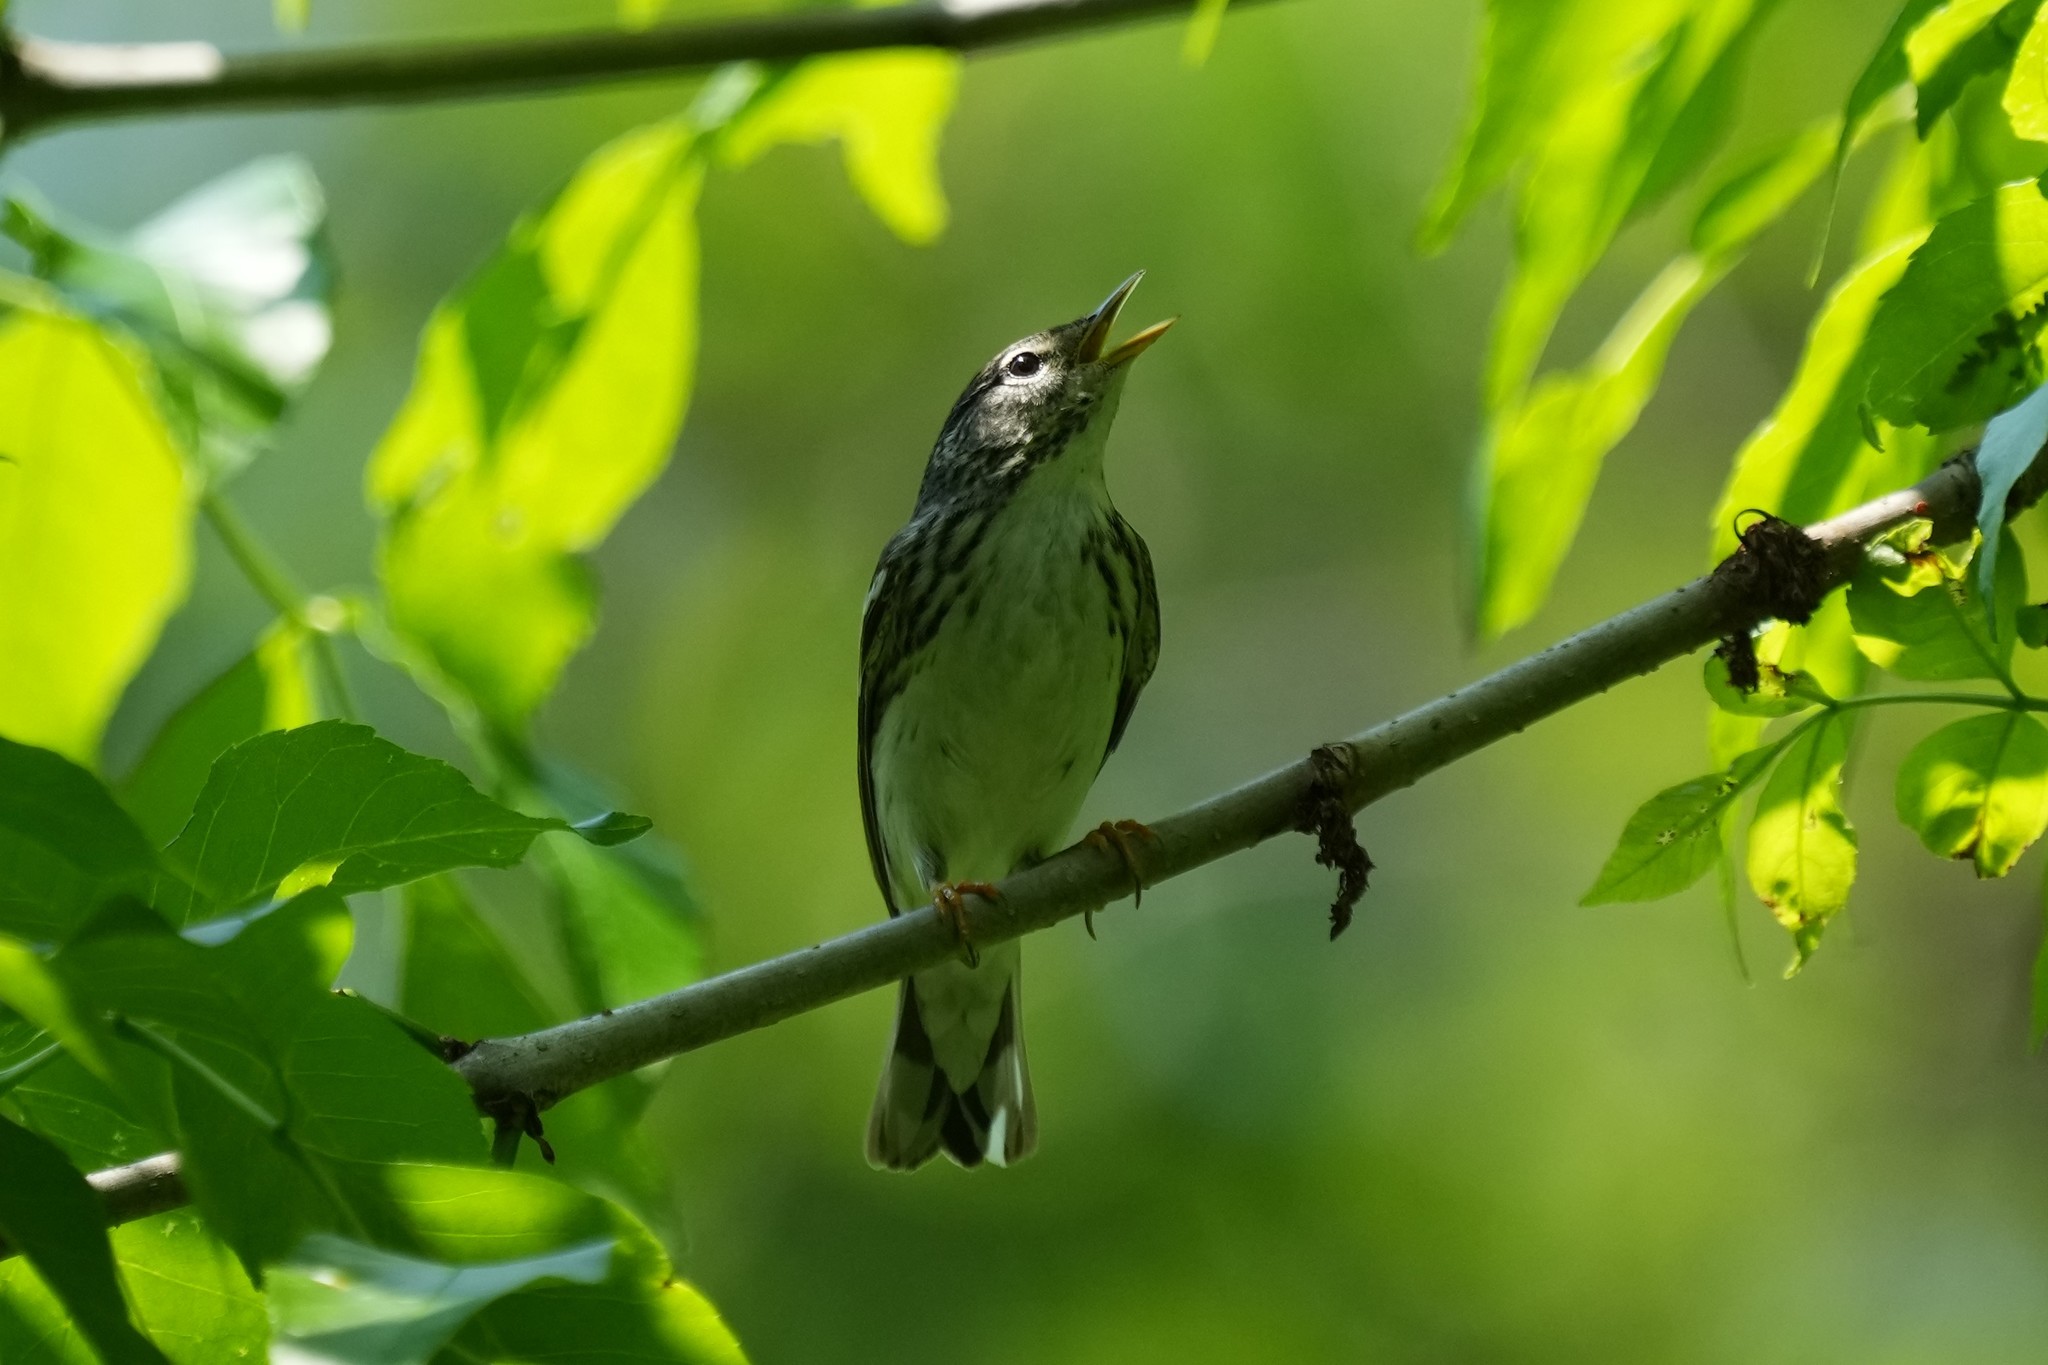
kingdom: Animalia
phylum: Chordata
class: Aves
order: Passeriformes
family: Parulidae
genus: Setophaga
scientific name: Setophaga striata
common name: Blackpoll warbler
